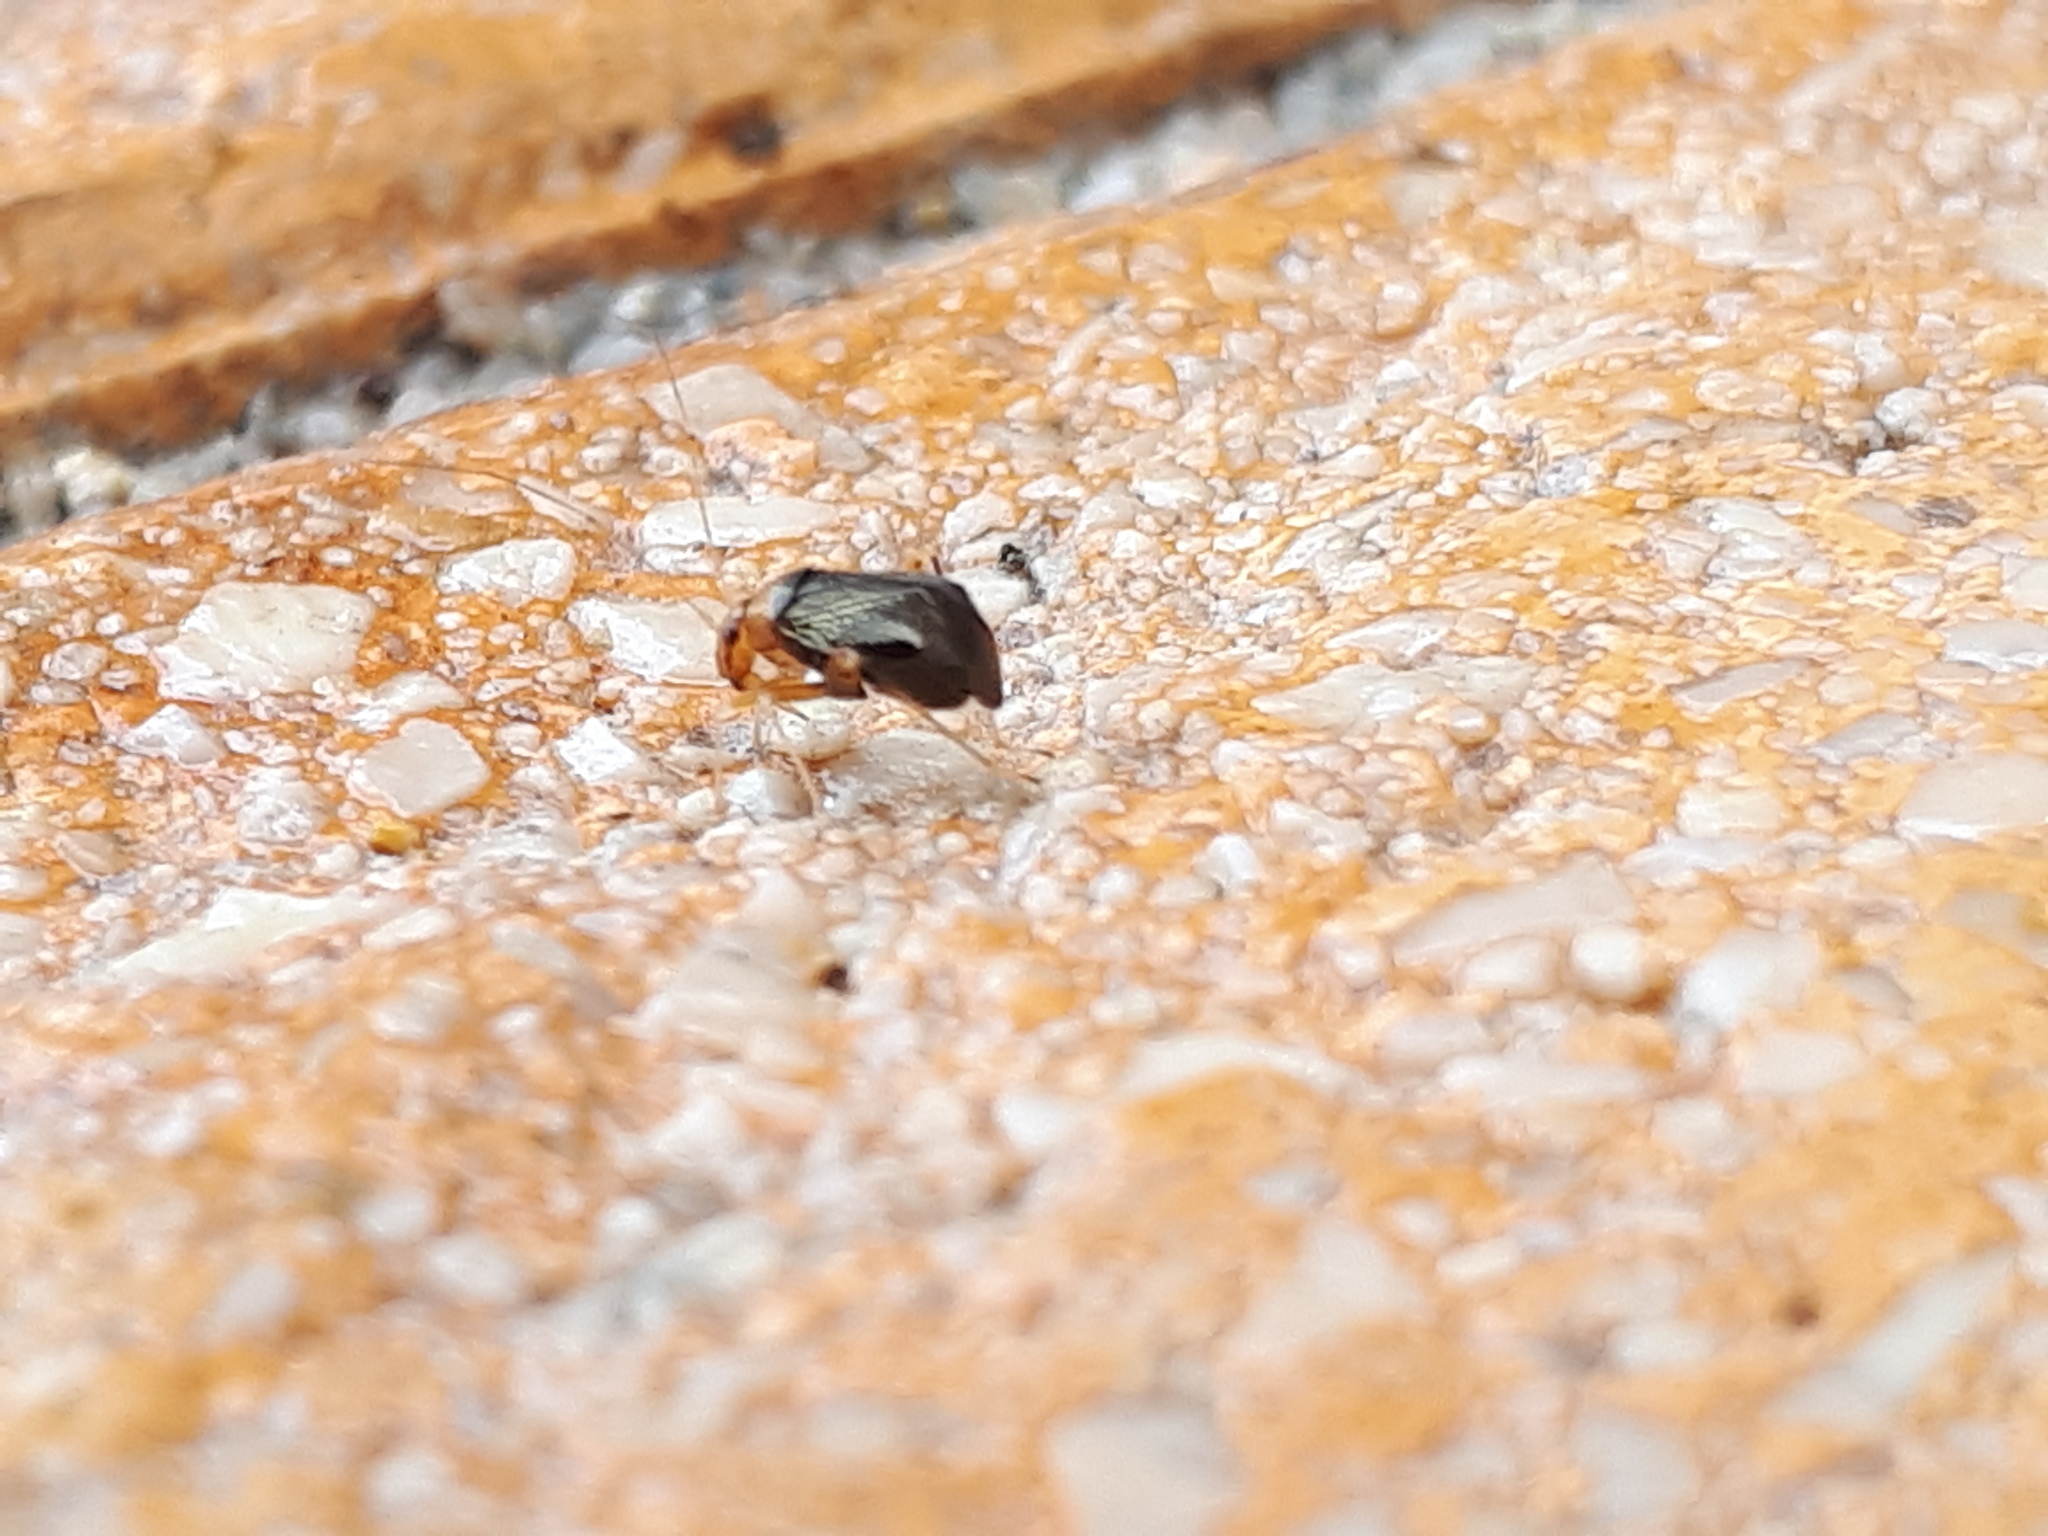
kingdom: Animalia
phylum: Arthropoda
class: Insecta
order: Hemiptera
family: Miridae
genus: Halticus
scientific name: Halticus luteicollis
